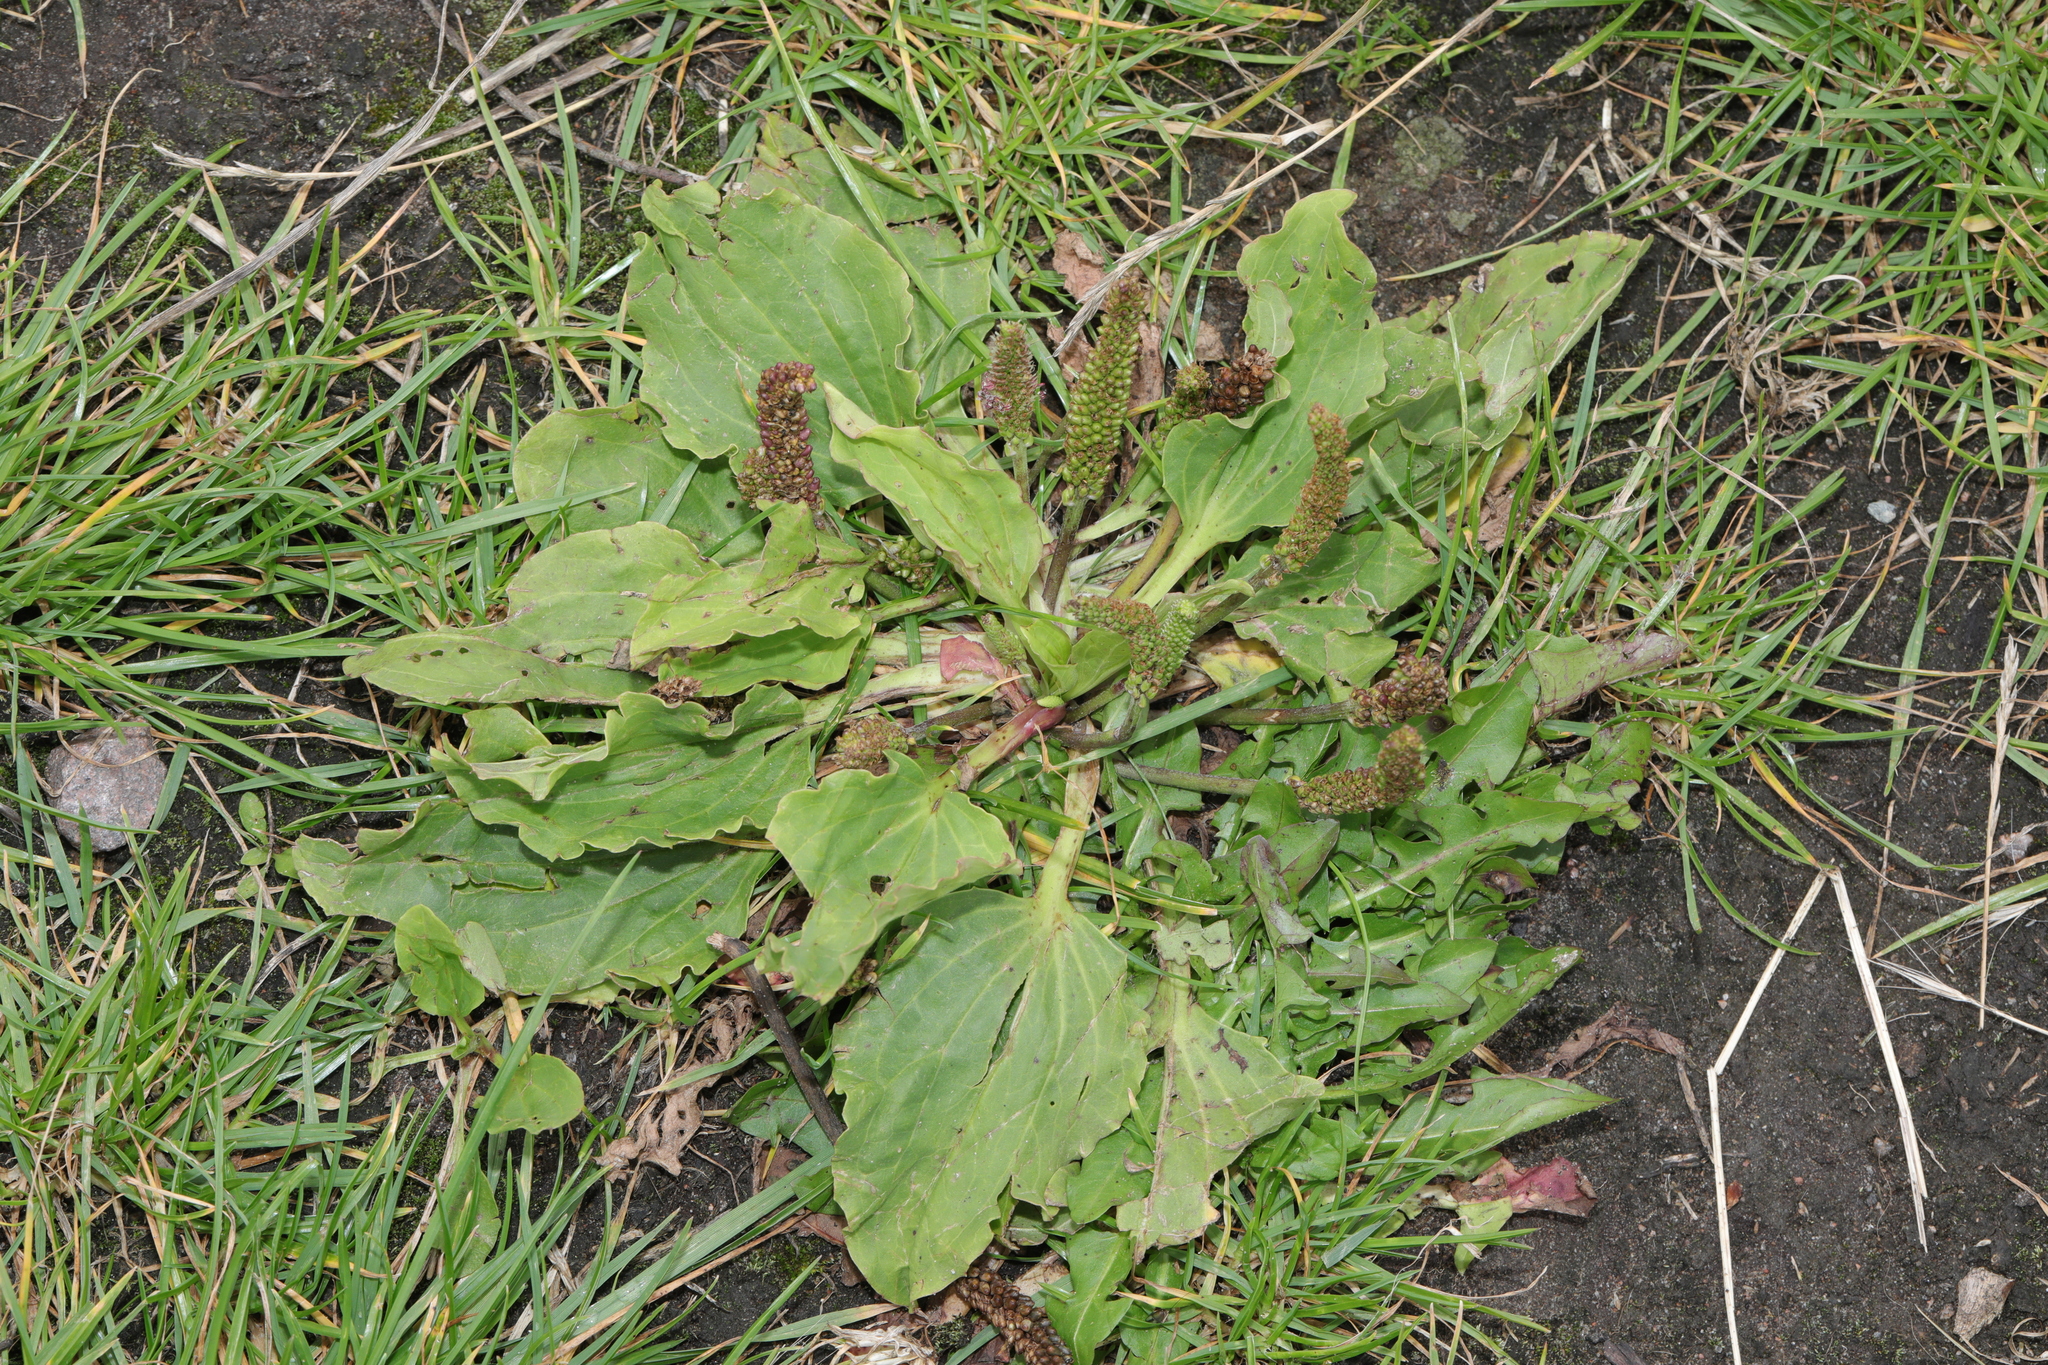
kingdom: Plantae
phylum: Tracheophyta
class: Magnoliopsida
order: Lamiales
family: Plantaginaceae
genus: Plantago
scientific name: Plantago major
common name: Common plantain
